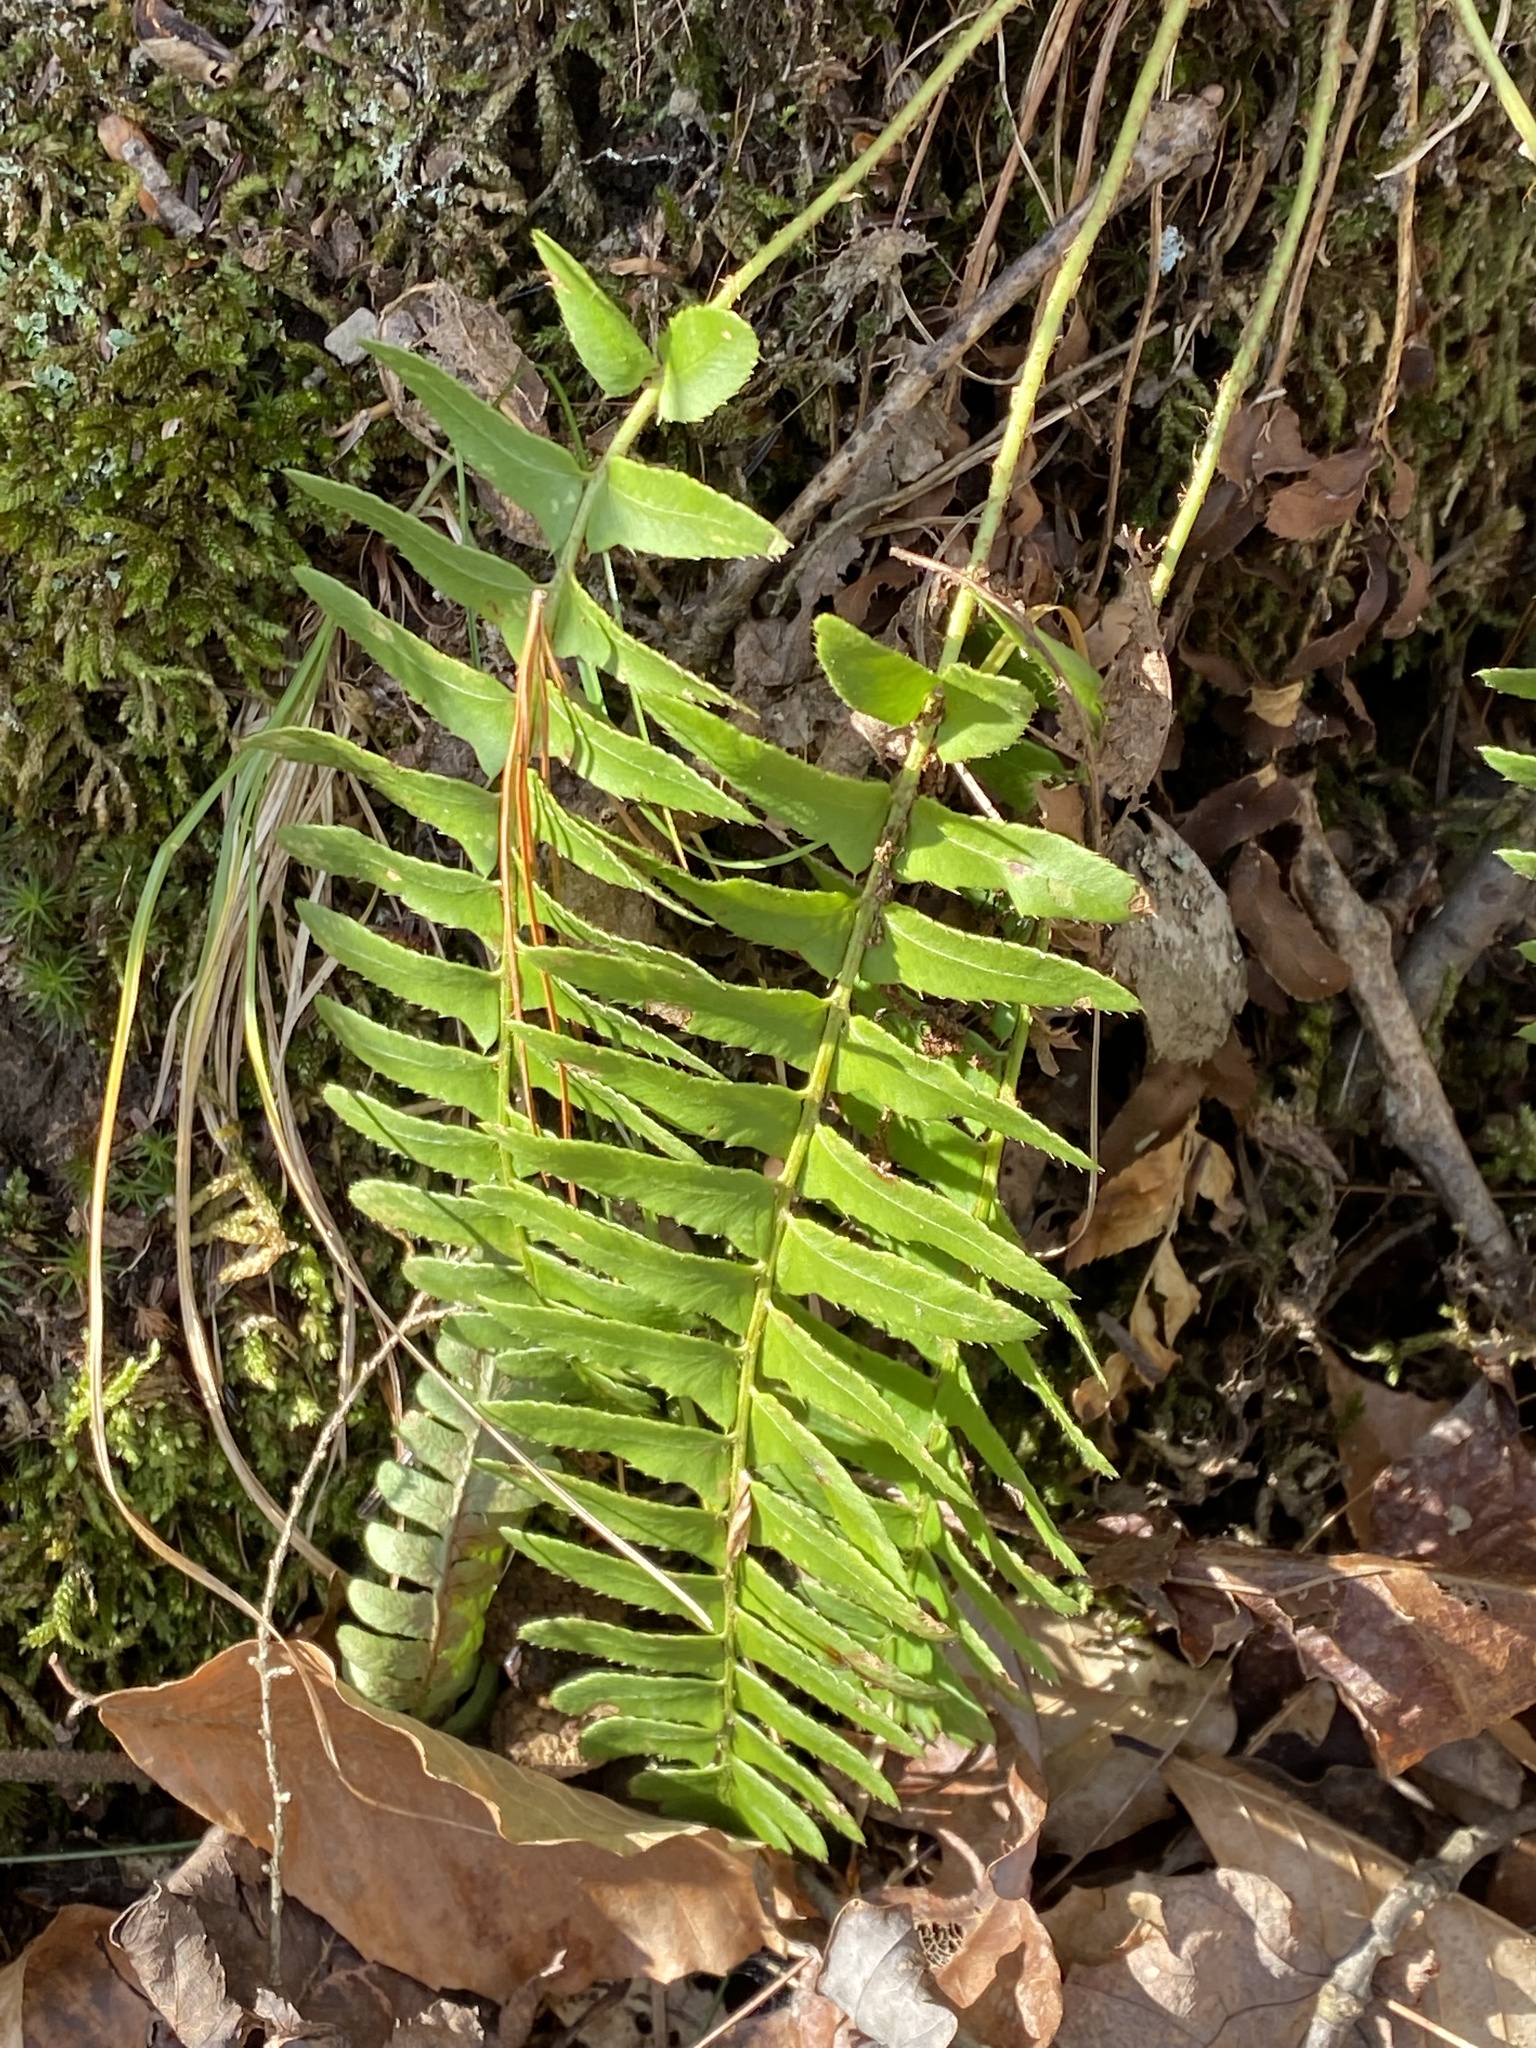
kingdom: Plantae
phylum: Tracheophyta
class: Polypodiopsida
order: Polypodiales
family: Dryopteridaceae
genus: Polystichum
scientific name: Polystichum acrostichoides
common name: Christmas fern
